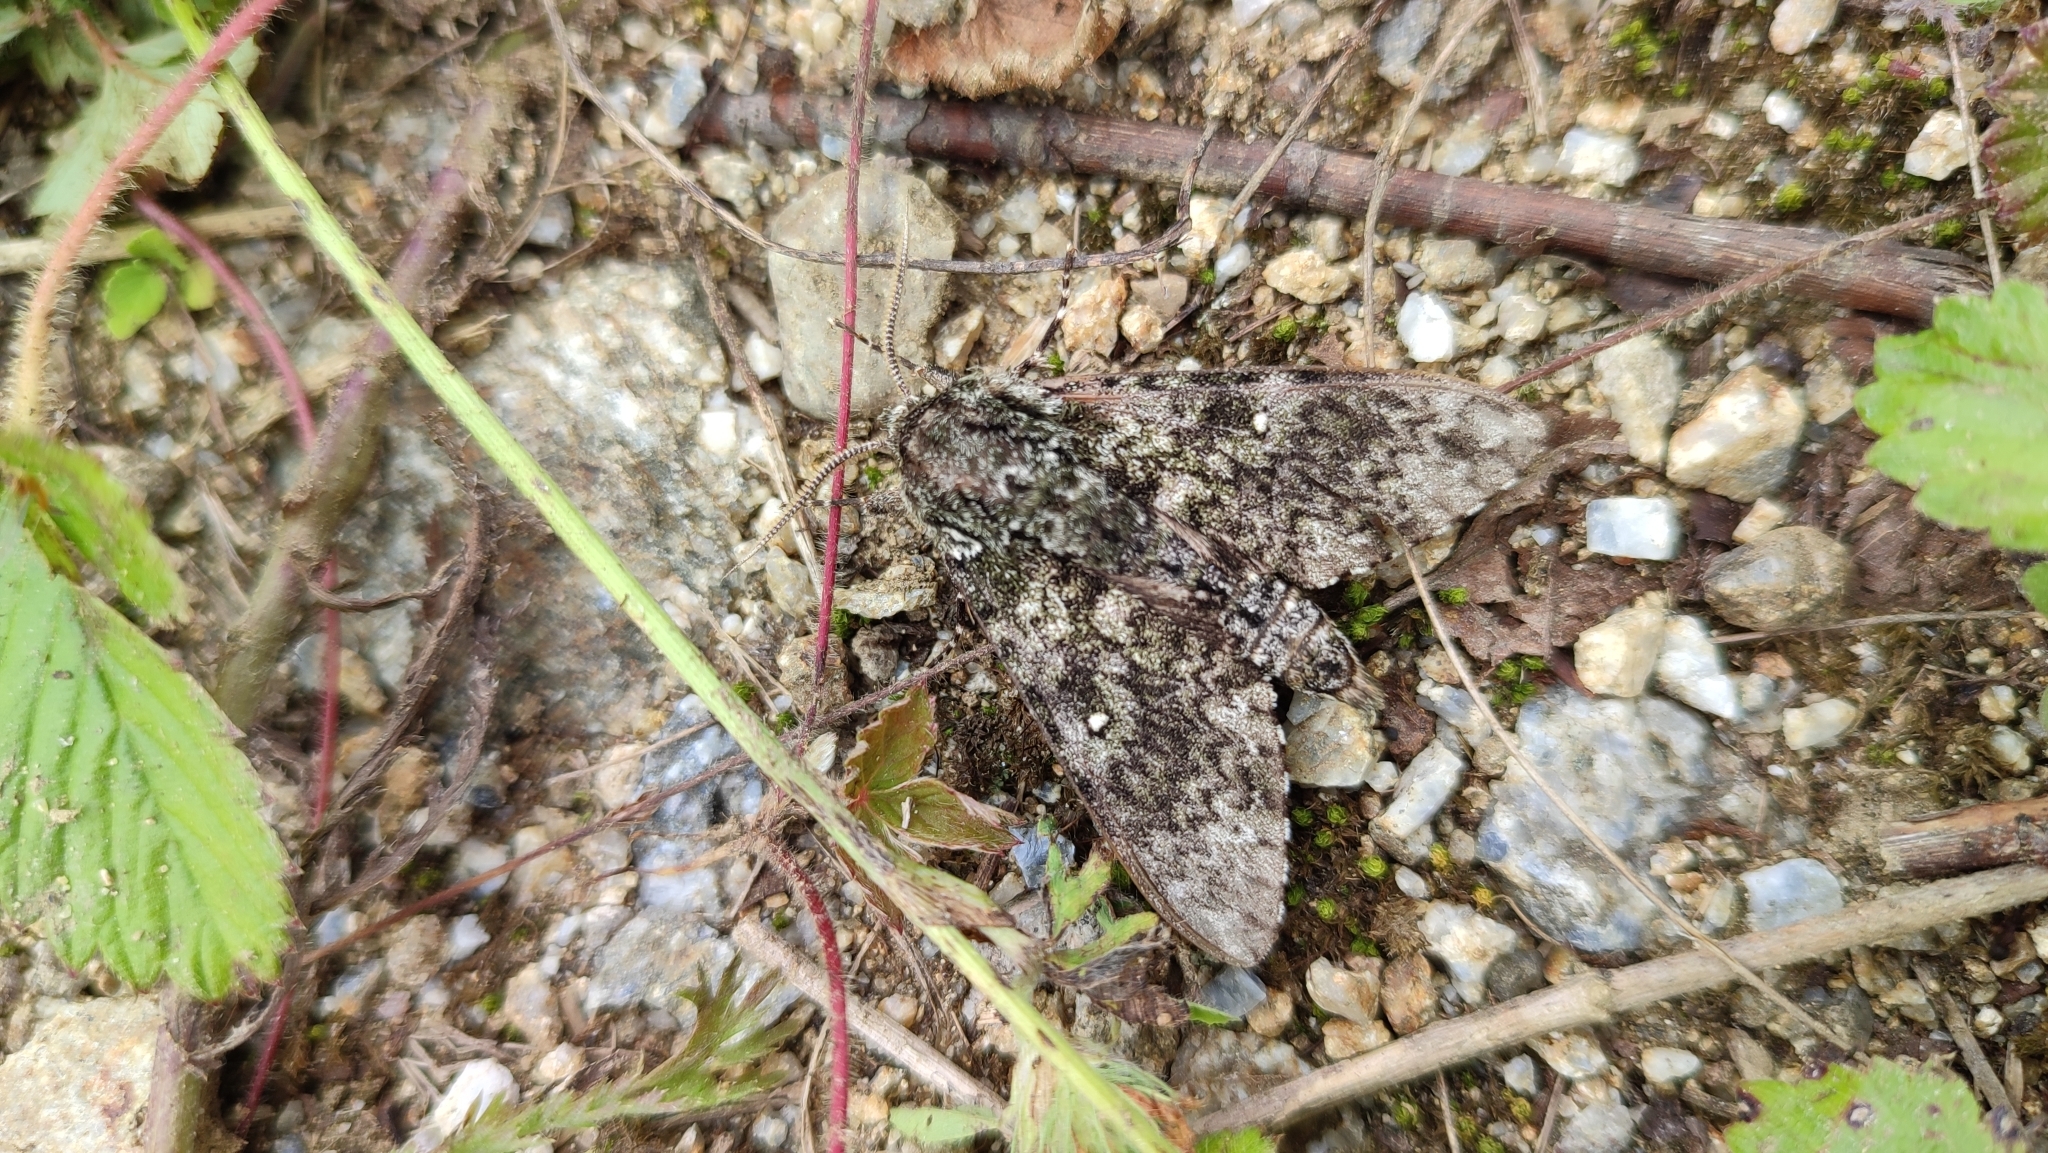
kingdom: Animalia
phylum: Arthropoda
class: Insecta
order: Lepidoptera
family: Sphingidae
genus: Dolbina
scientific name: Dolbina exacta
